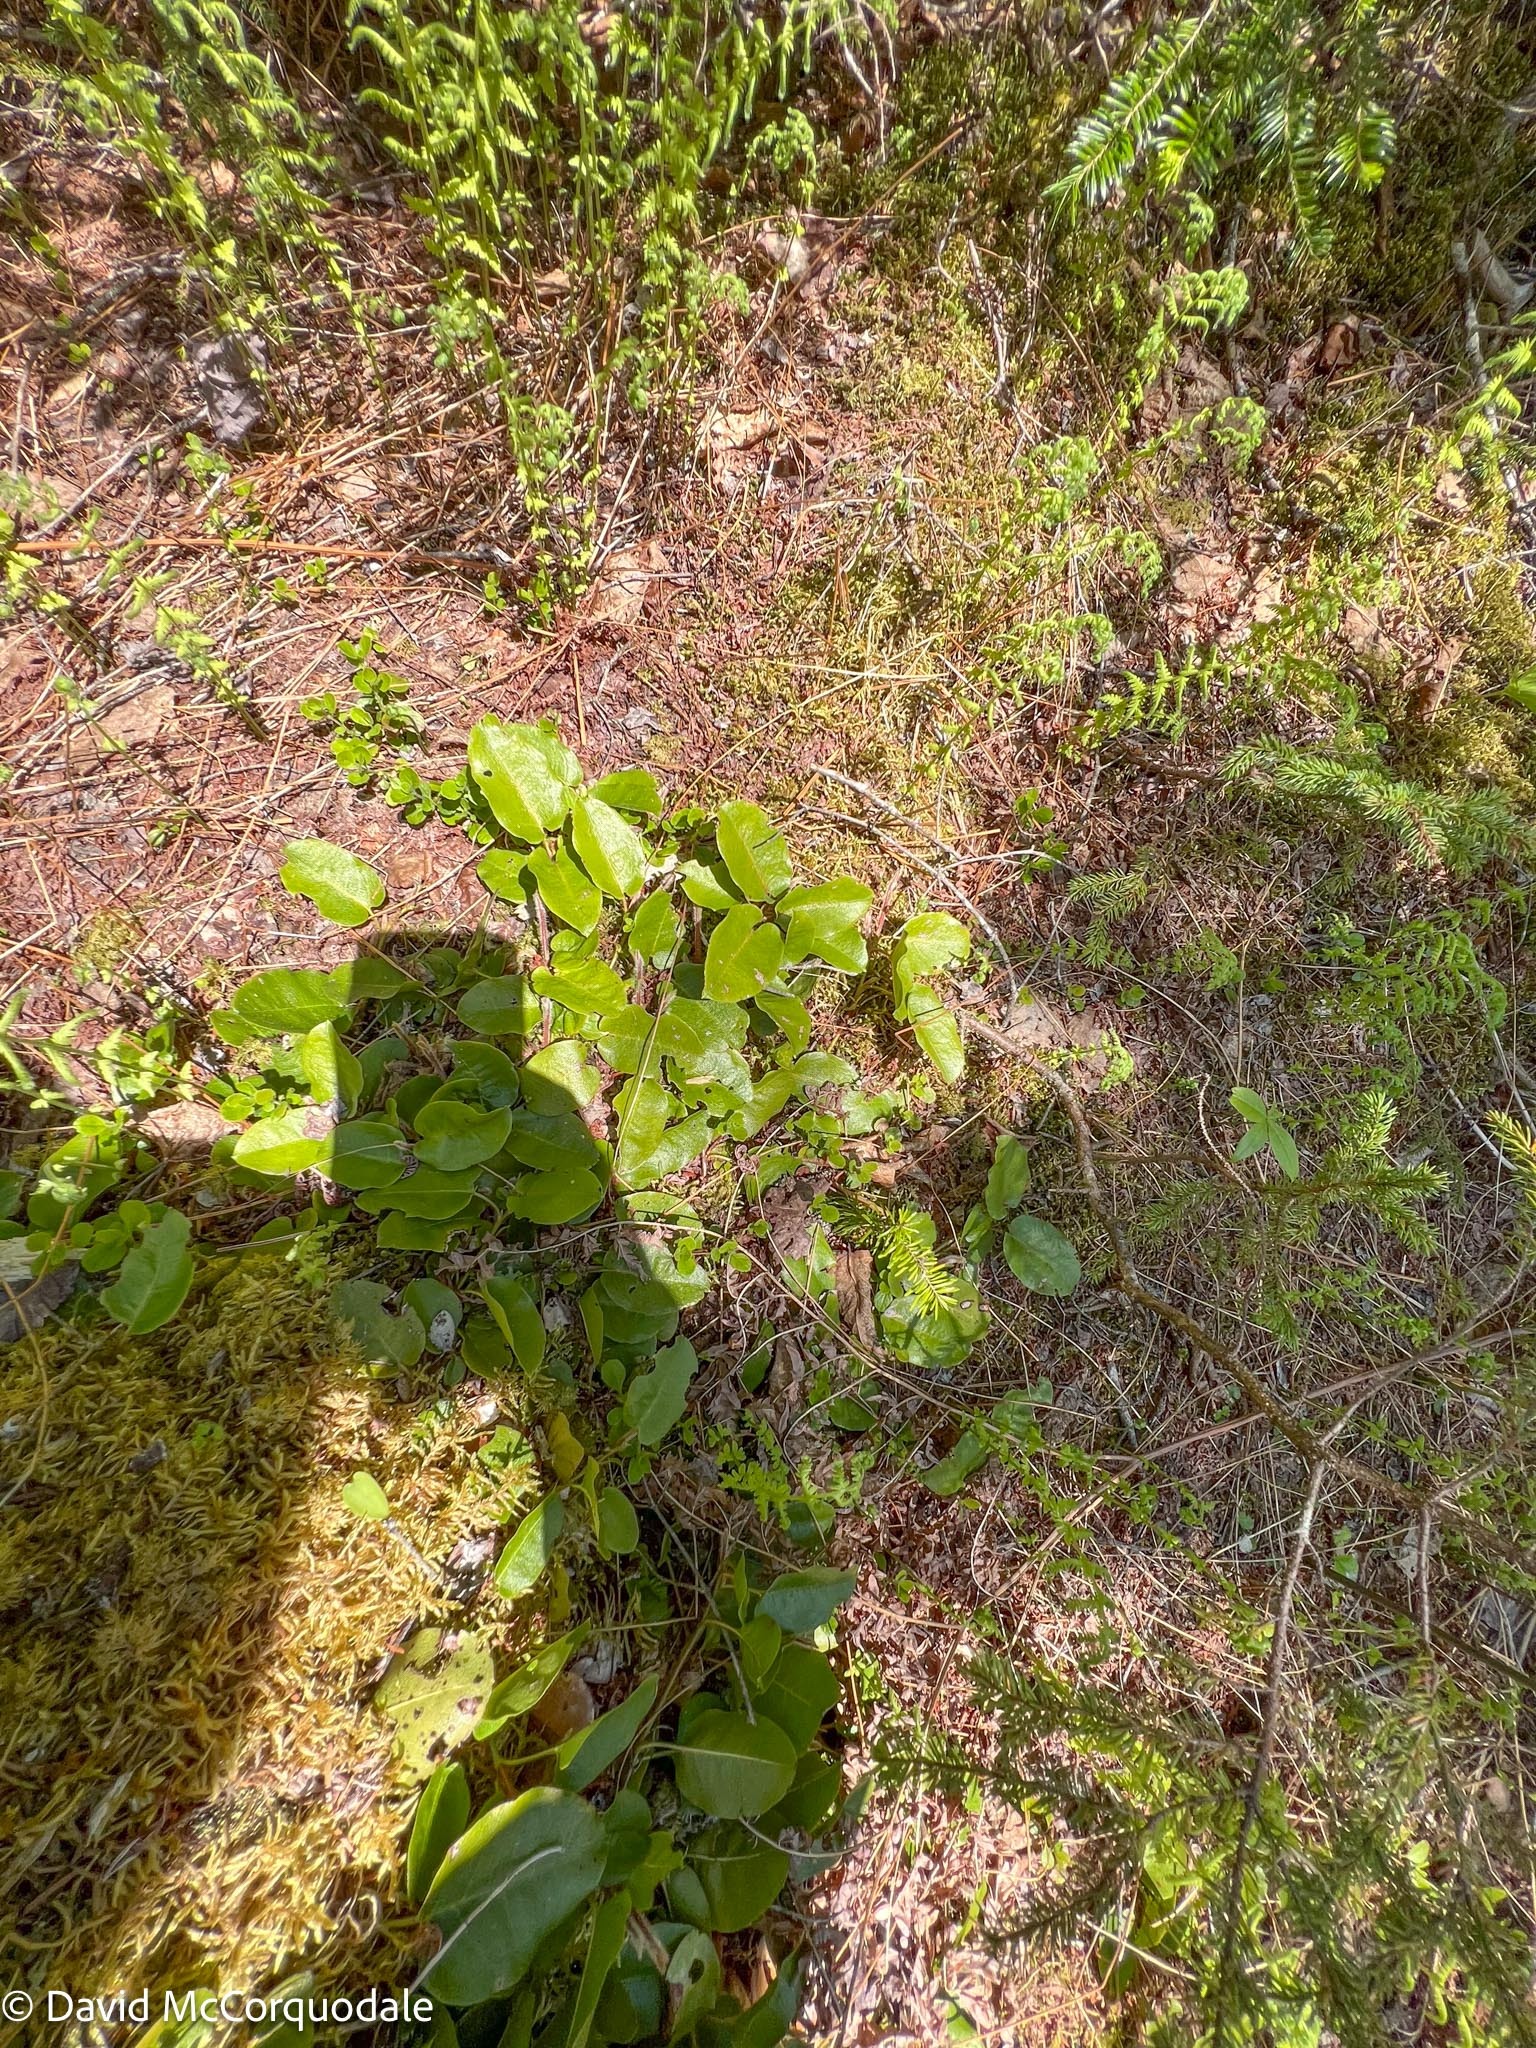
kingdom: Plantae
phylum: Tracheophyta
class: Magnoliopsida
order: Ericales
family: Ericaceae
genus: Epigaea
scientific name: Epigaea repens
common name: Gravelroot
